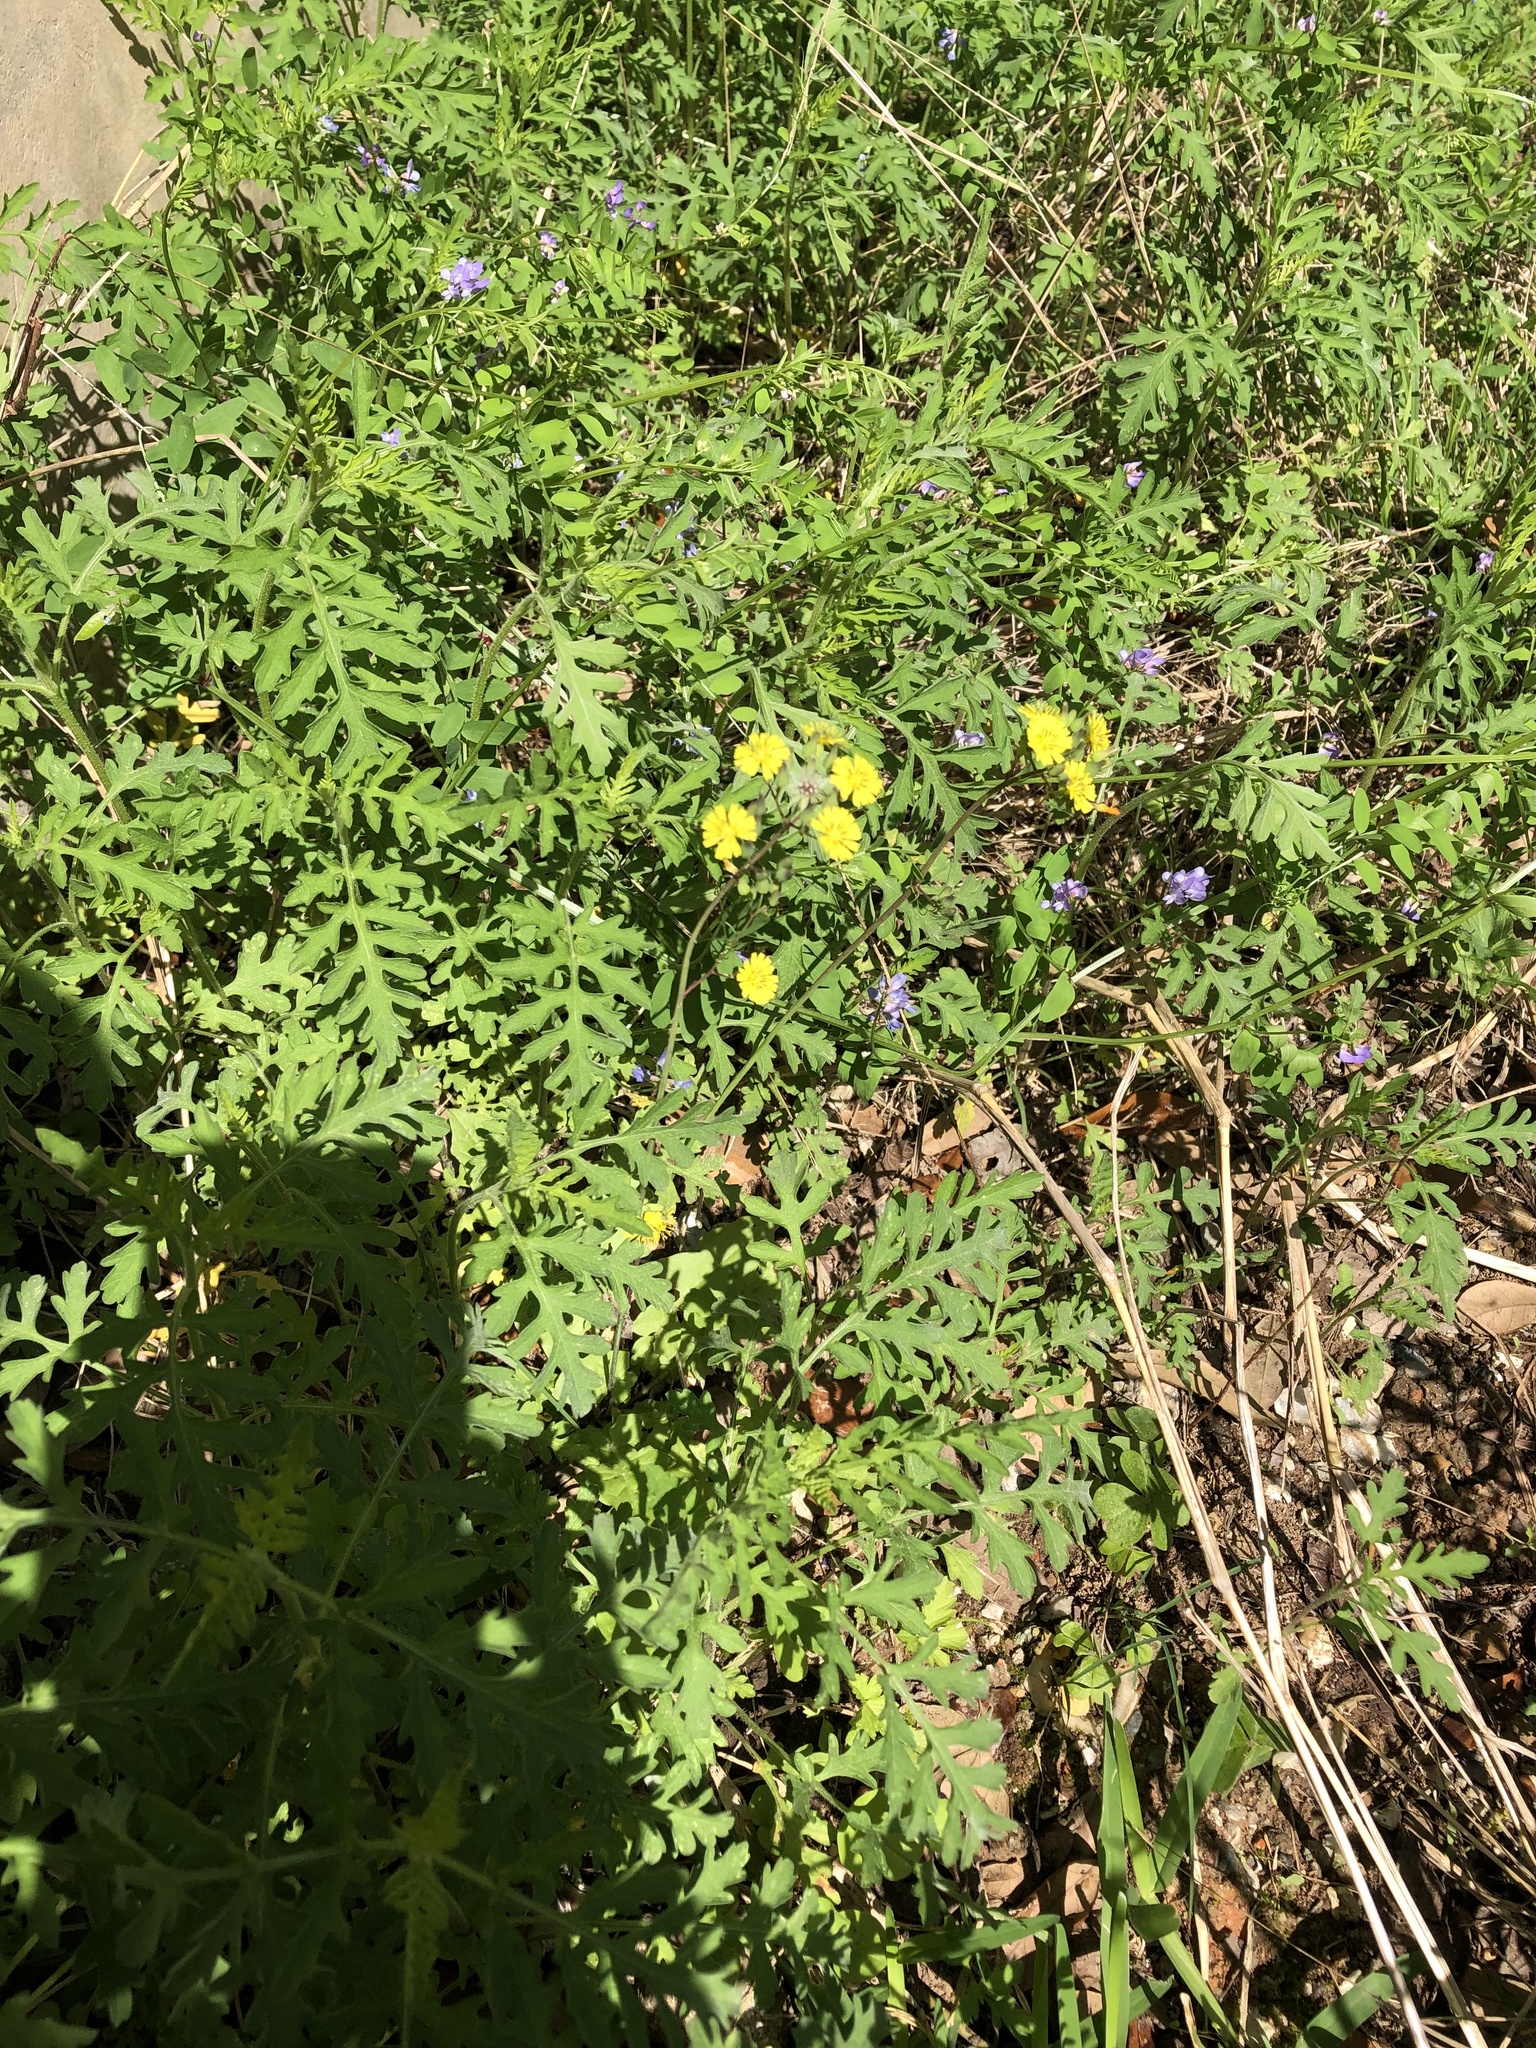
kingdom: Plantae
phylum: Tracheophyta
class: Magnoliopsida
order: Asterales
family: Asteraceae
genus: Youngia
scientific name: Youngia japonica
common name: Oriental false hawksbeard
